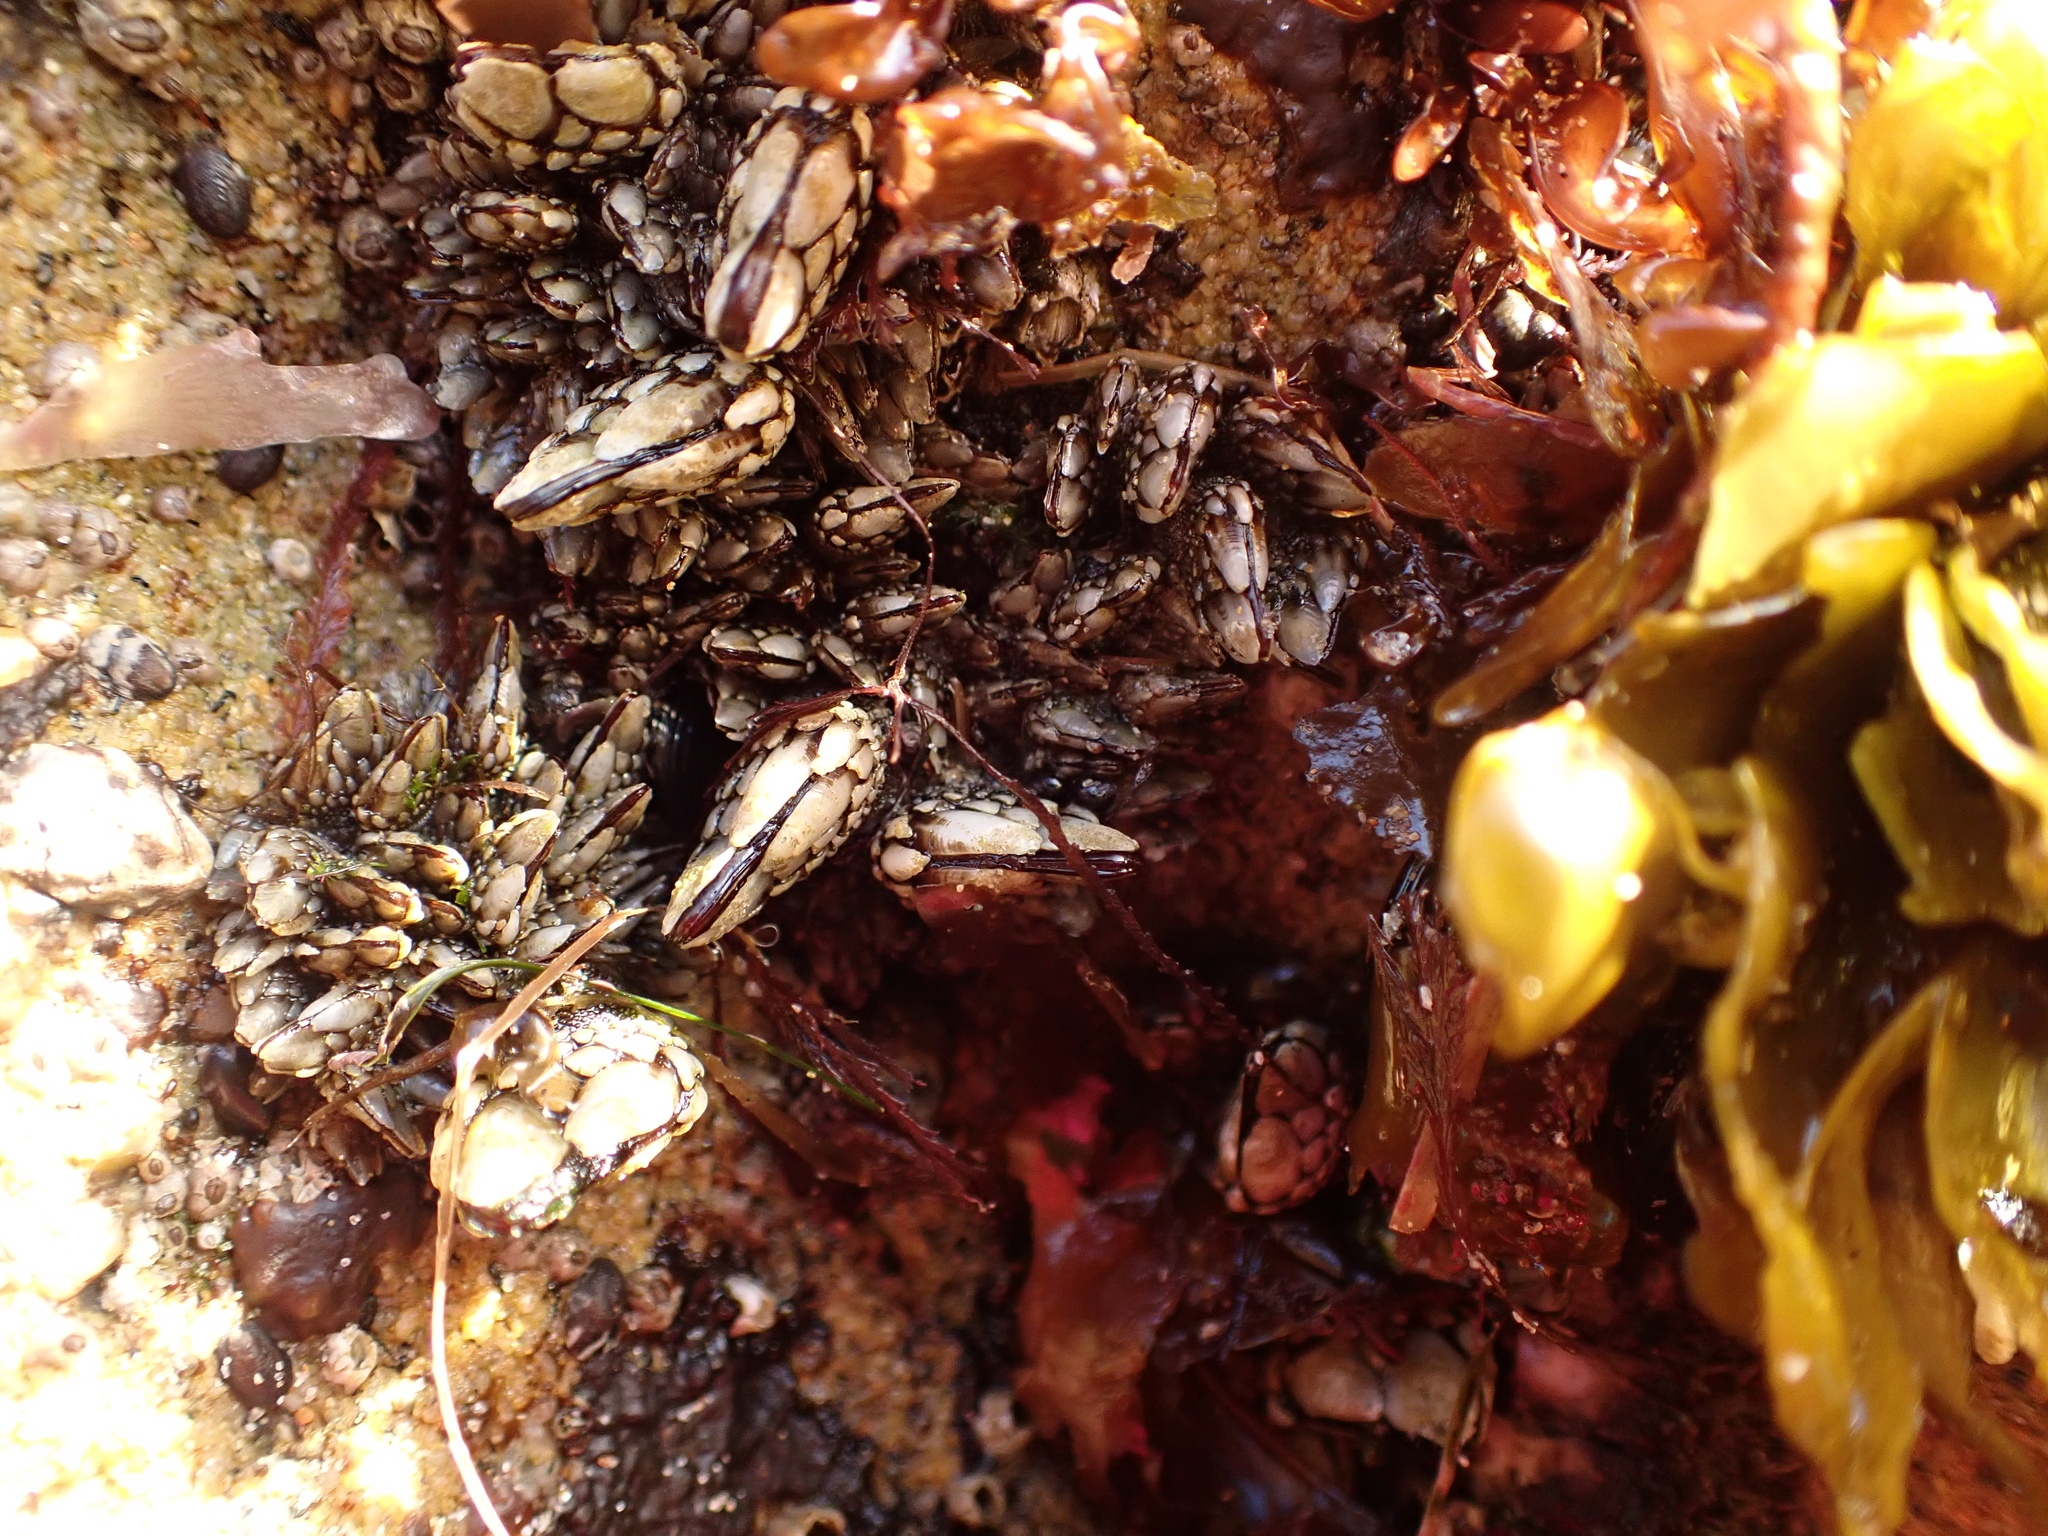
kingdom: Animalia
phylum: Arthropoda
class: Maxillopoda
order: Pedunculata
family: Pollicipedidae
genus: Pollicipes
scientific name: Pollicipes polymerus
